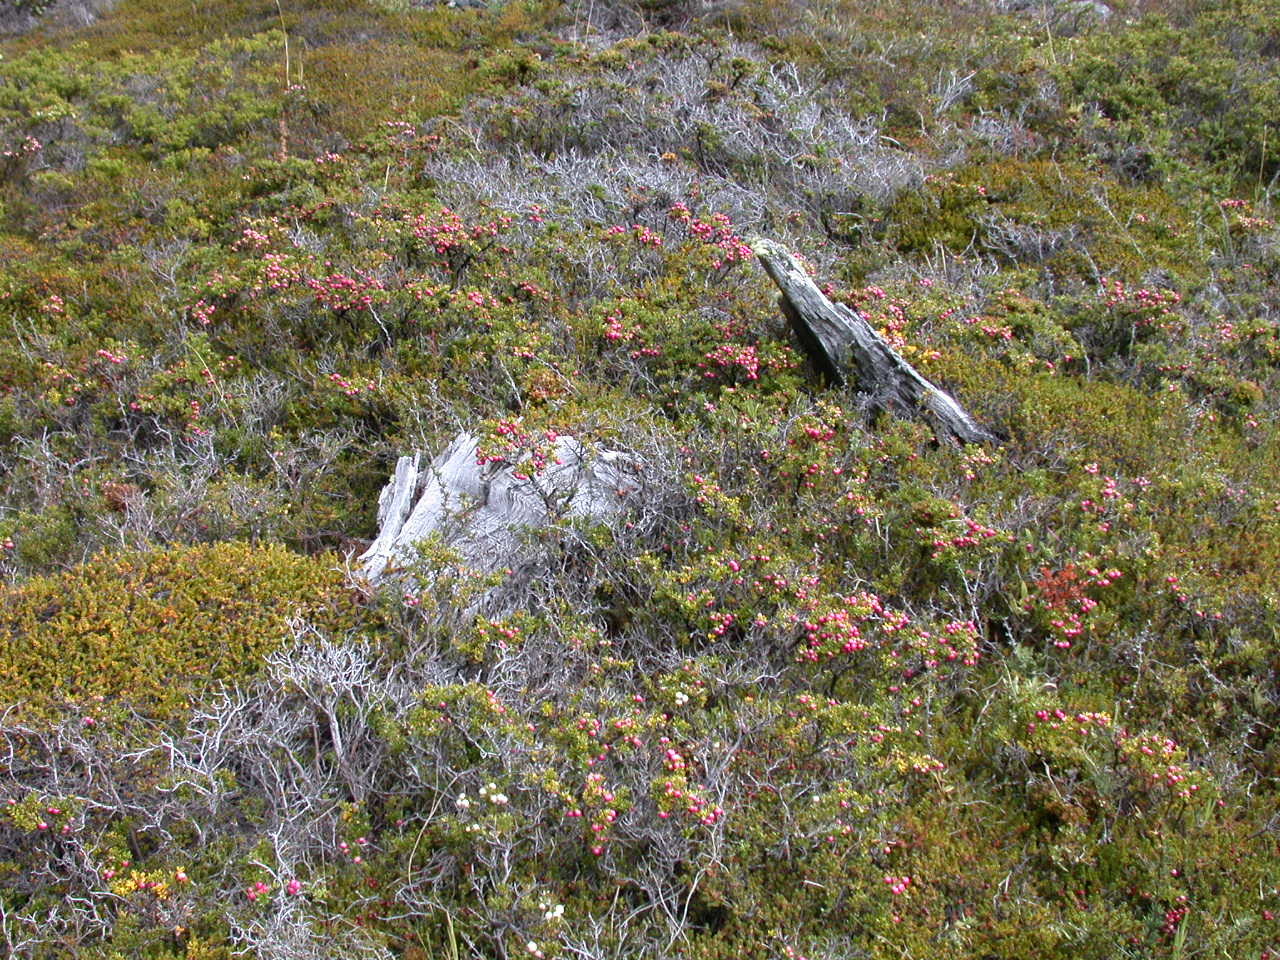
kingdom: Plantae
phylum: Tracheophyta
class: Magnoliopsida
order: Ericales
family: Ericaceae
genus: Gaultheria
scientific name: Gaultheria mucronata
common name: Prickly heath
